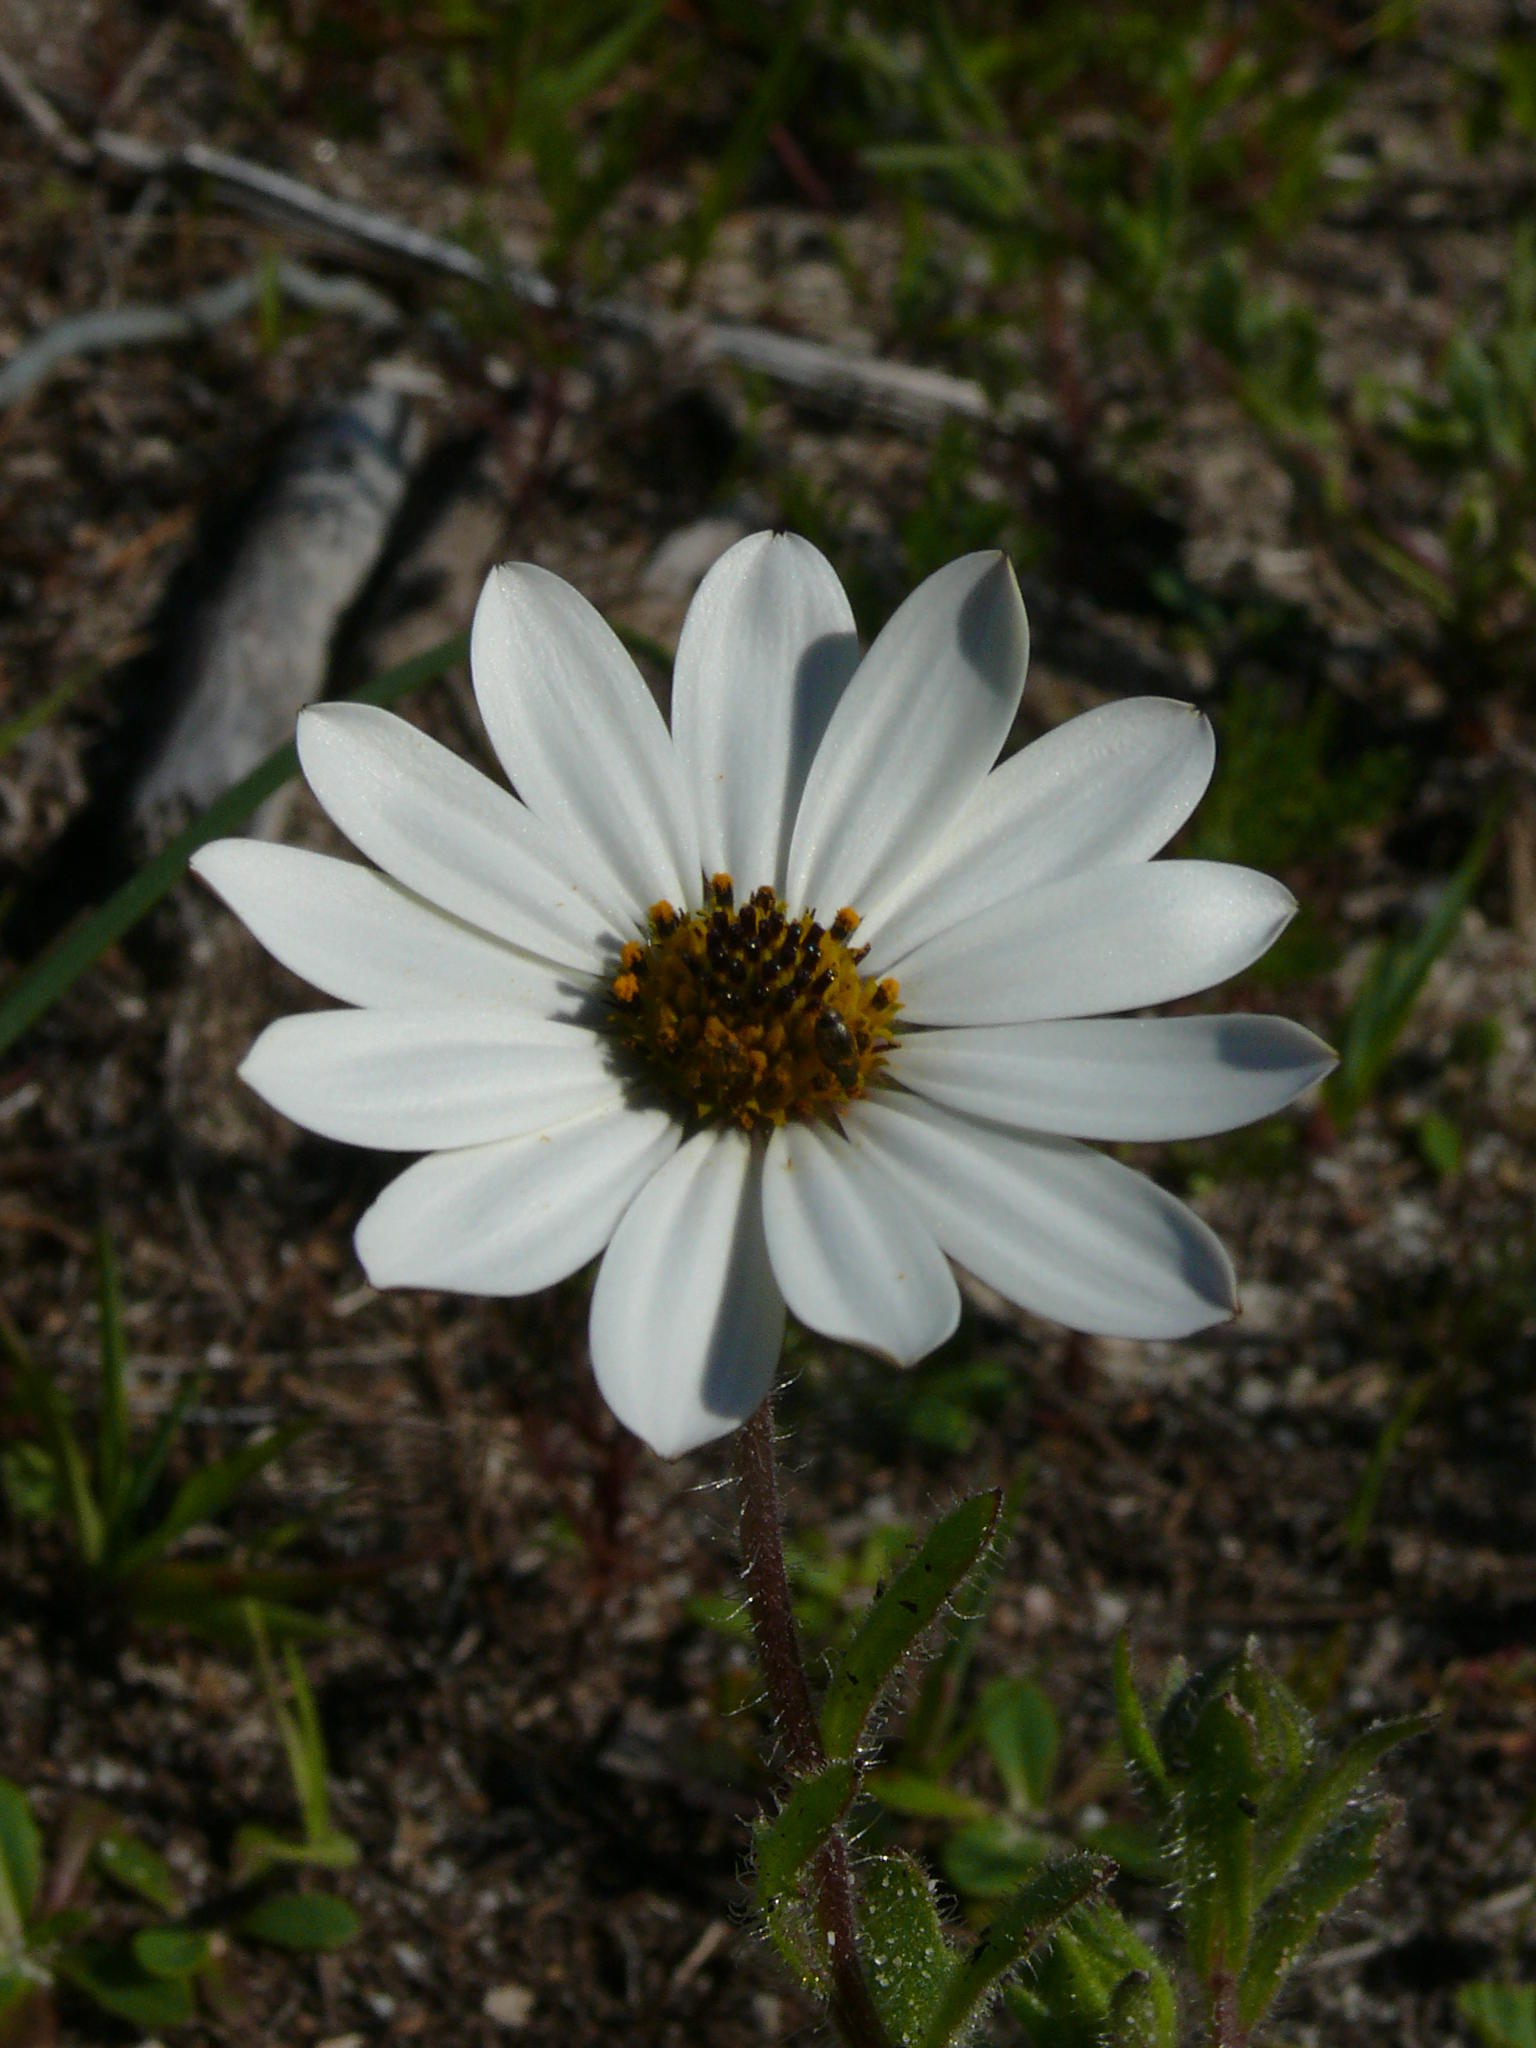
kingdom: Plantae
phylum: Tracheophyta
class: Magnoliopsida
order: Asterales
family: Asteraceae
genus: Dimorphotheca
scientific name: Dimorphotheca pluvialis
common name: Weather prophet
